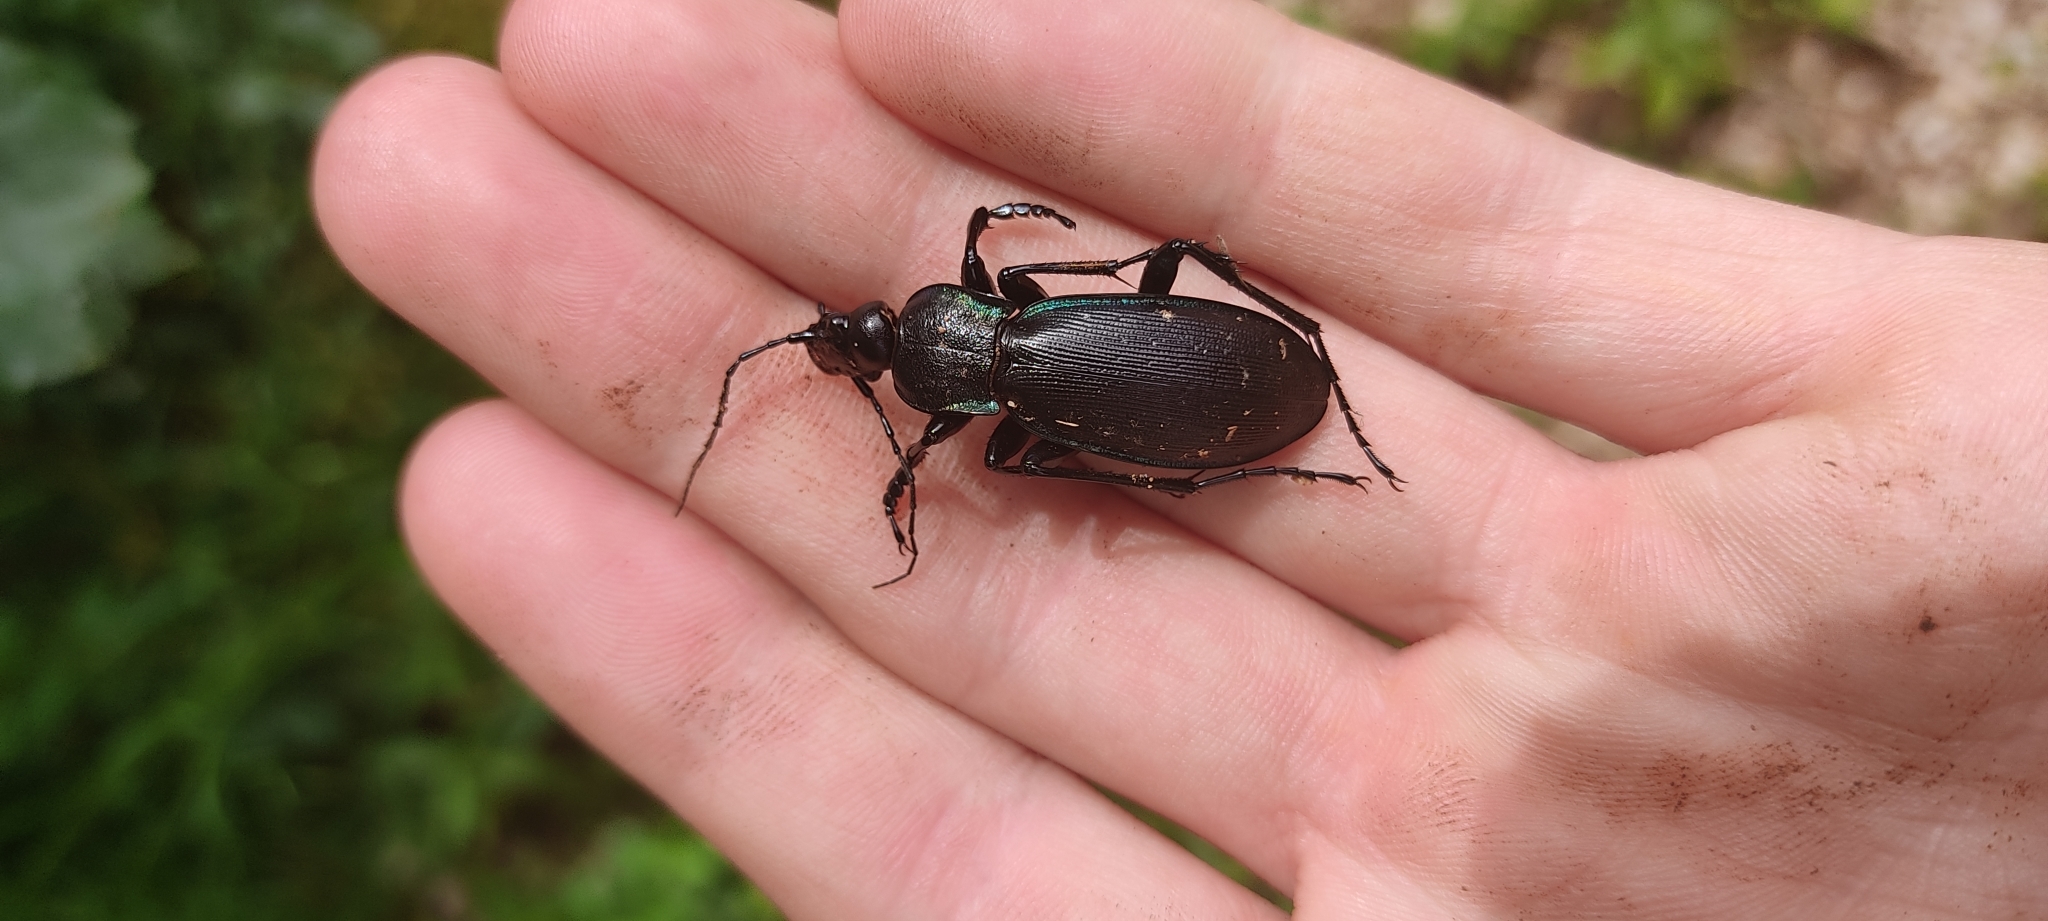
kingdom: Animalia
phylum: Arthropoda
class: Insecta
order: Coleoptera
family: Carabidae
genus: Carabus
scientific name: Carabus purpurascens
